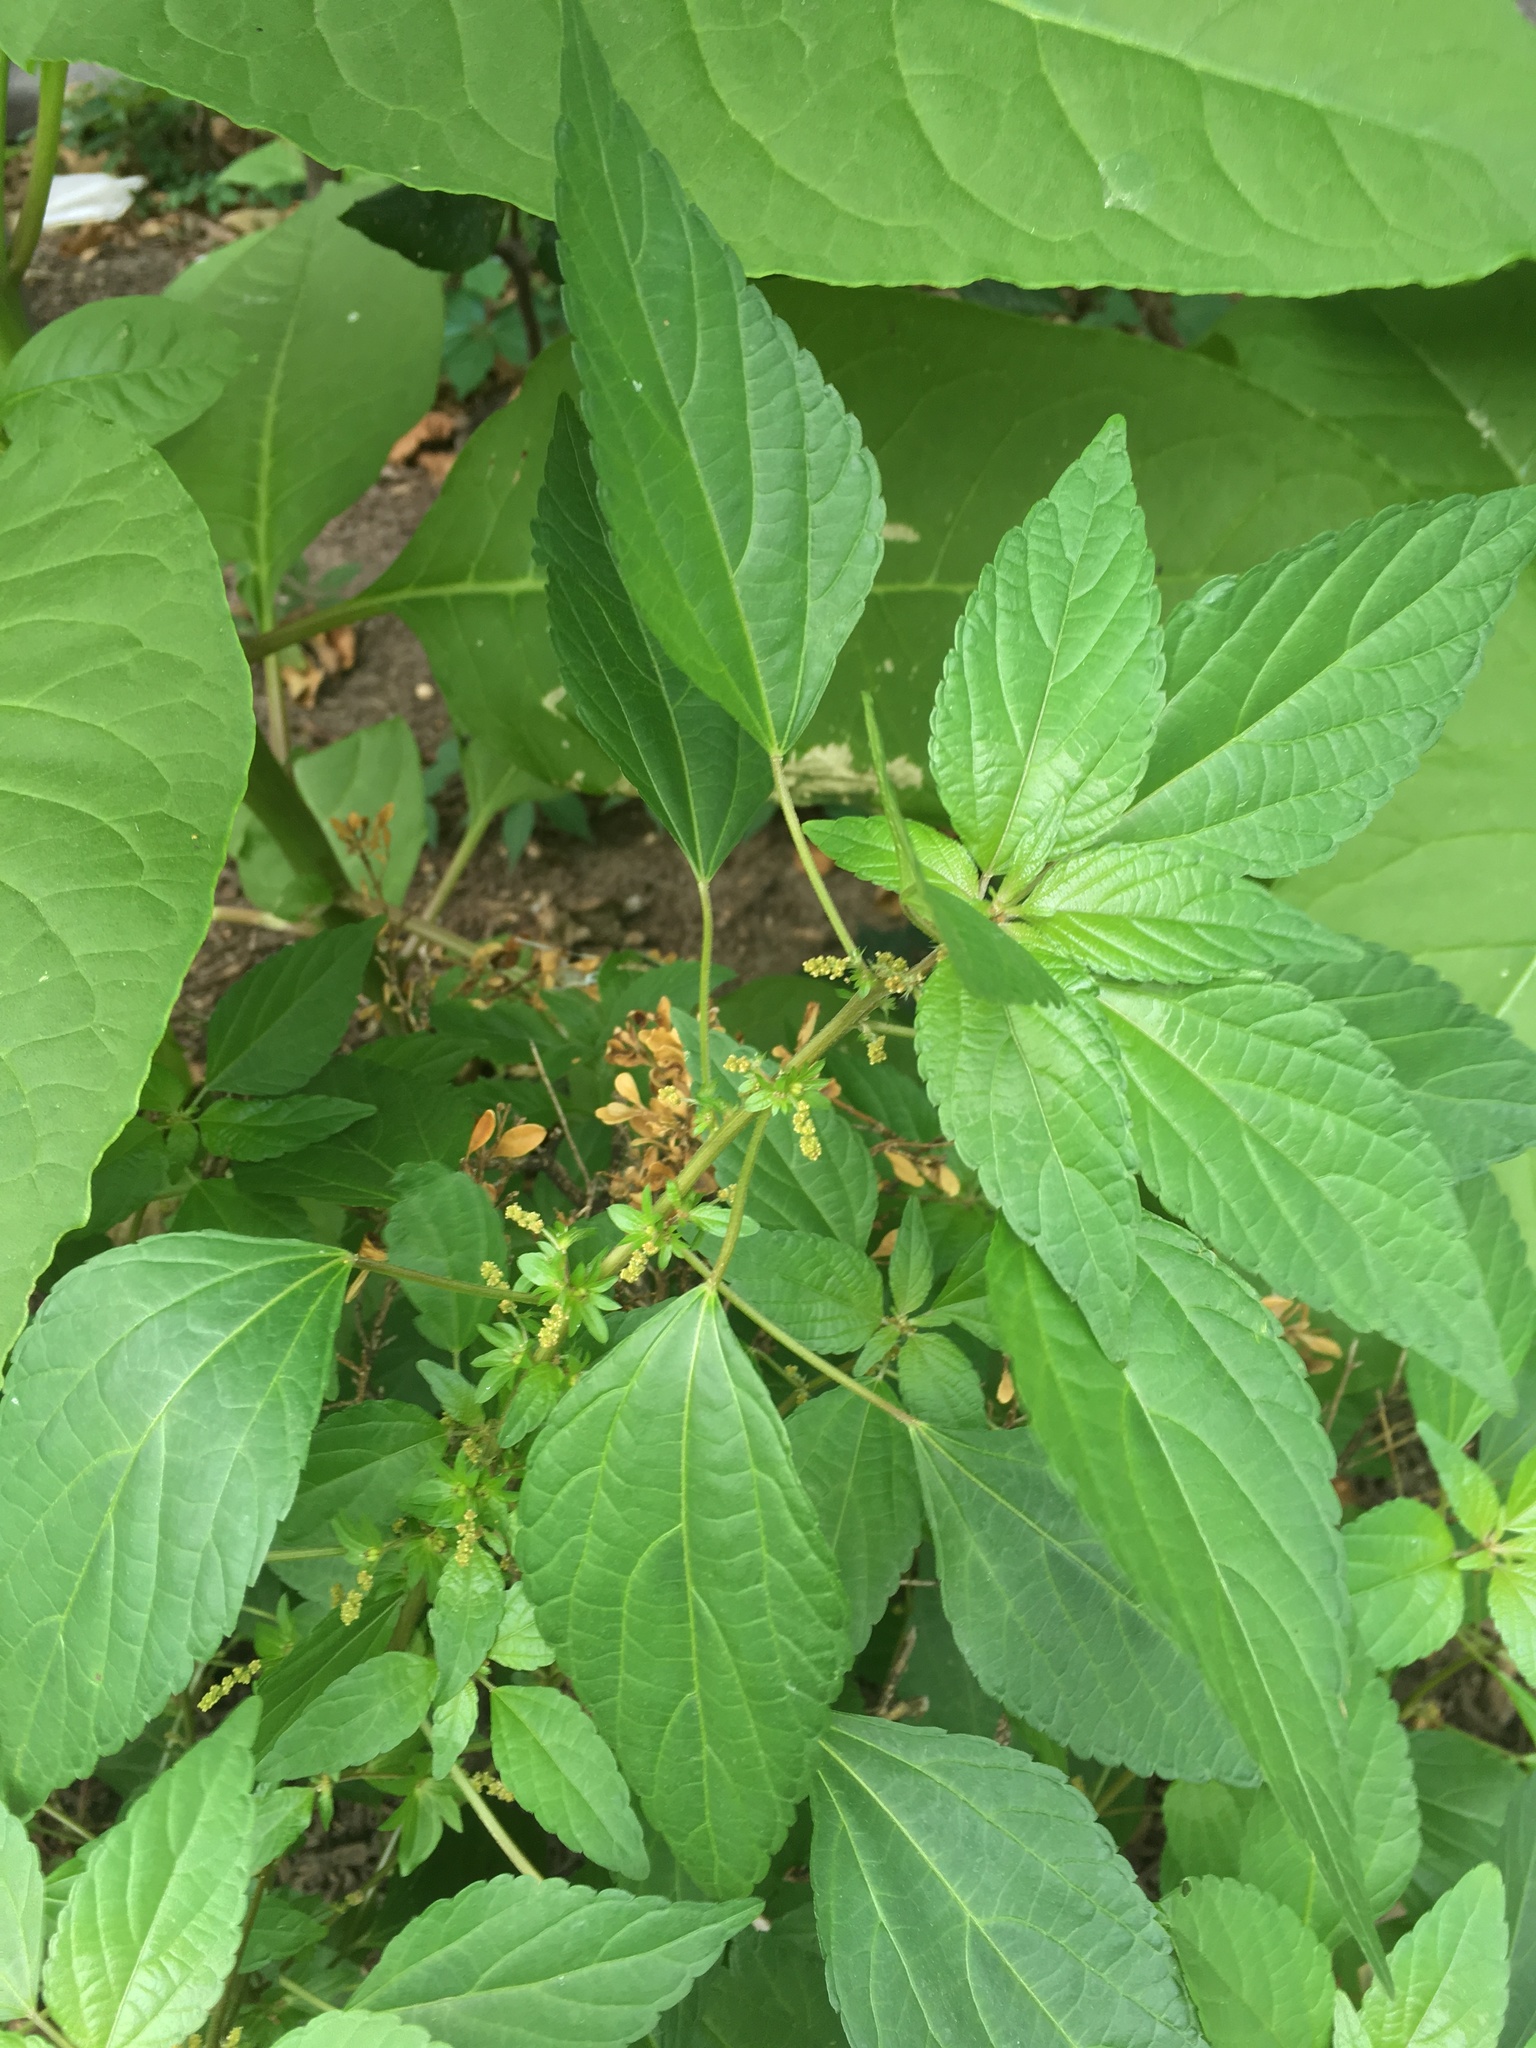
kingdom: Plantae
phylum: Tracheophyta
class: Magnoliopsida
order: Malpighiales
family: Euphorbiaceae
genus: Acalypha
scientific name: Acalypha rhomboidea
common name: Rhombic copperleaf
